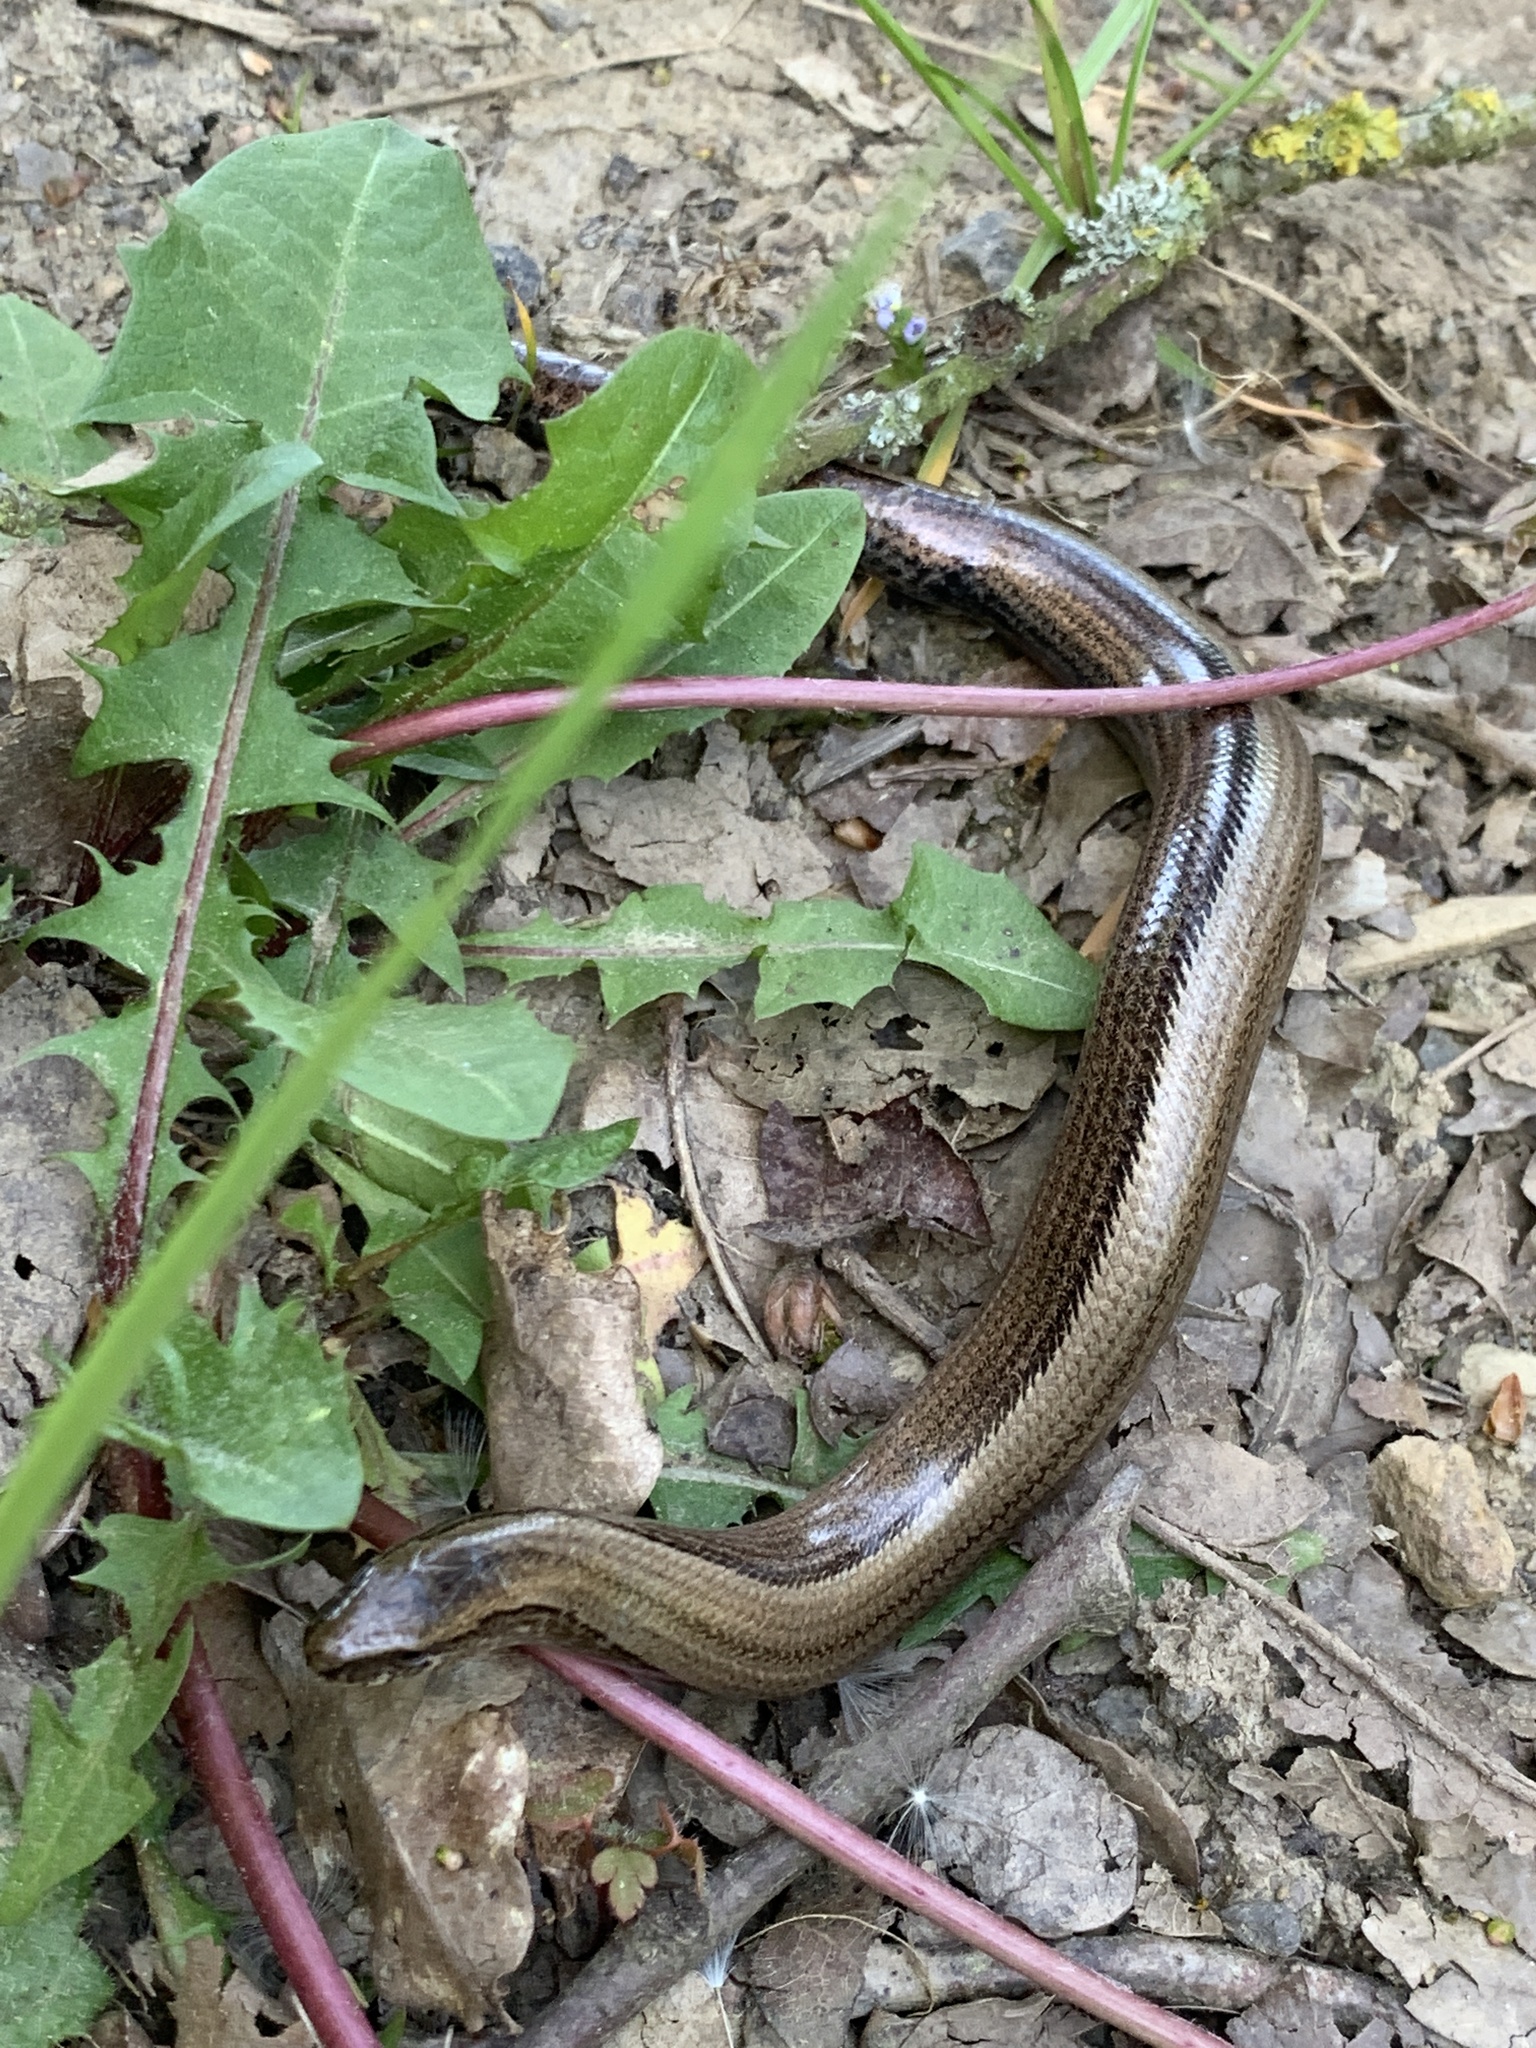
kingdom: Animalia
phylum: Chordata
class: Squamata
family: Anguidae
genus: Anguis
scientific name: Anguis fragilis
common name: Slow worm
